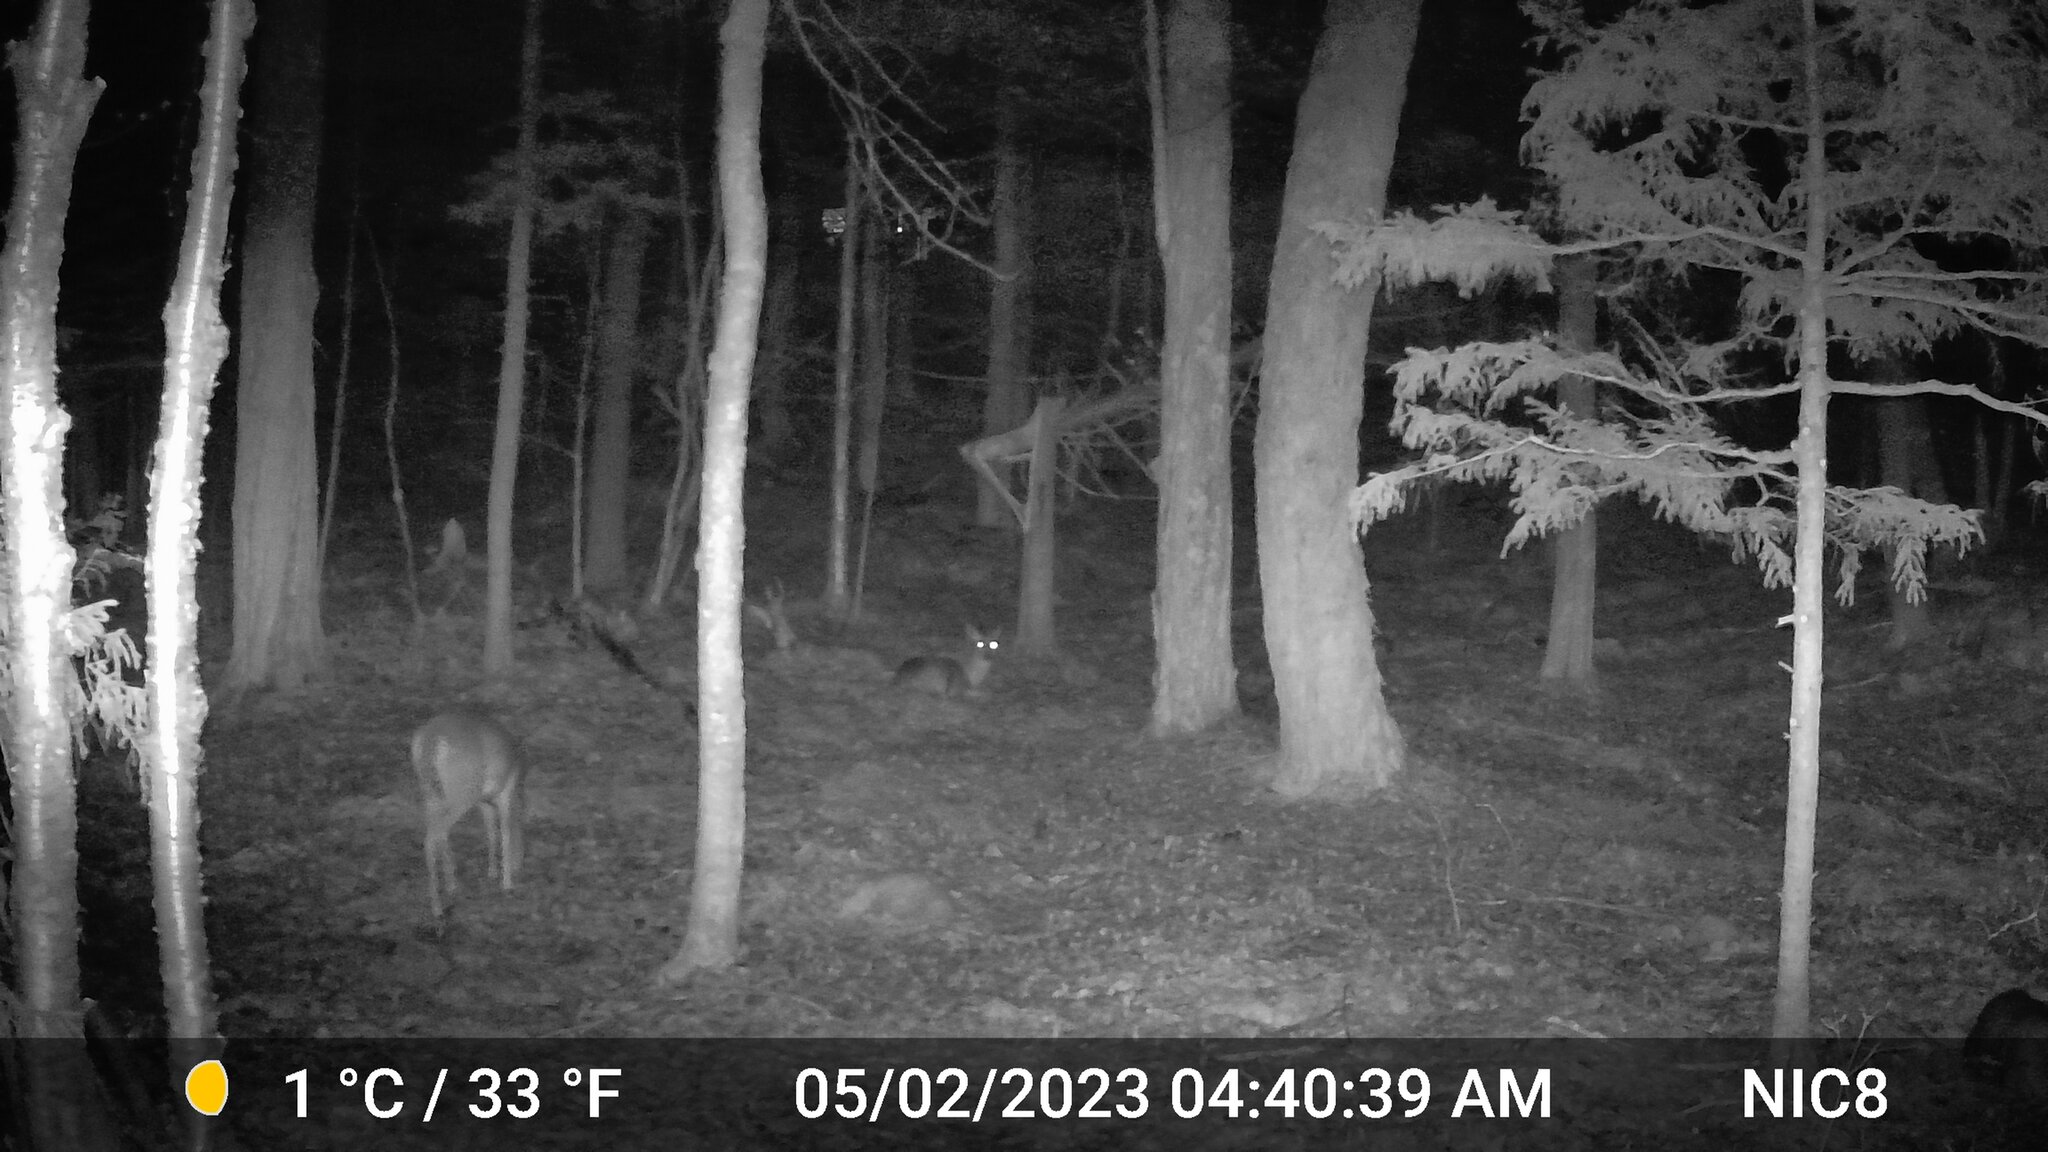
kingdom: Animalia
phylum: Chordata
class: Mammalia
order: Artiodactyla
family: Cervidae
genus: Odocoileus
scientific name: Odocoileus virginianus
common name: White-tailed deer
